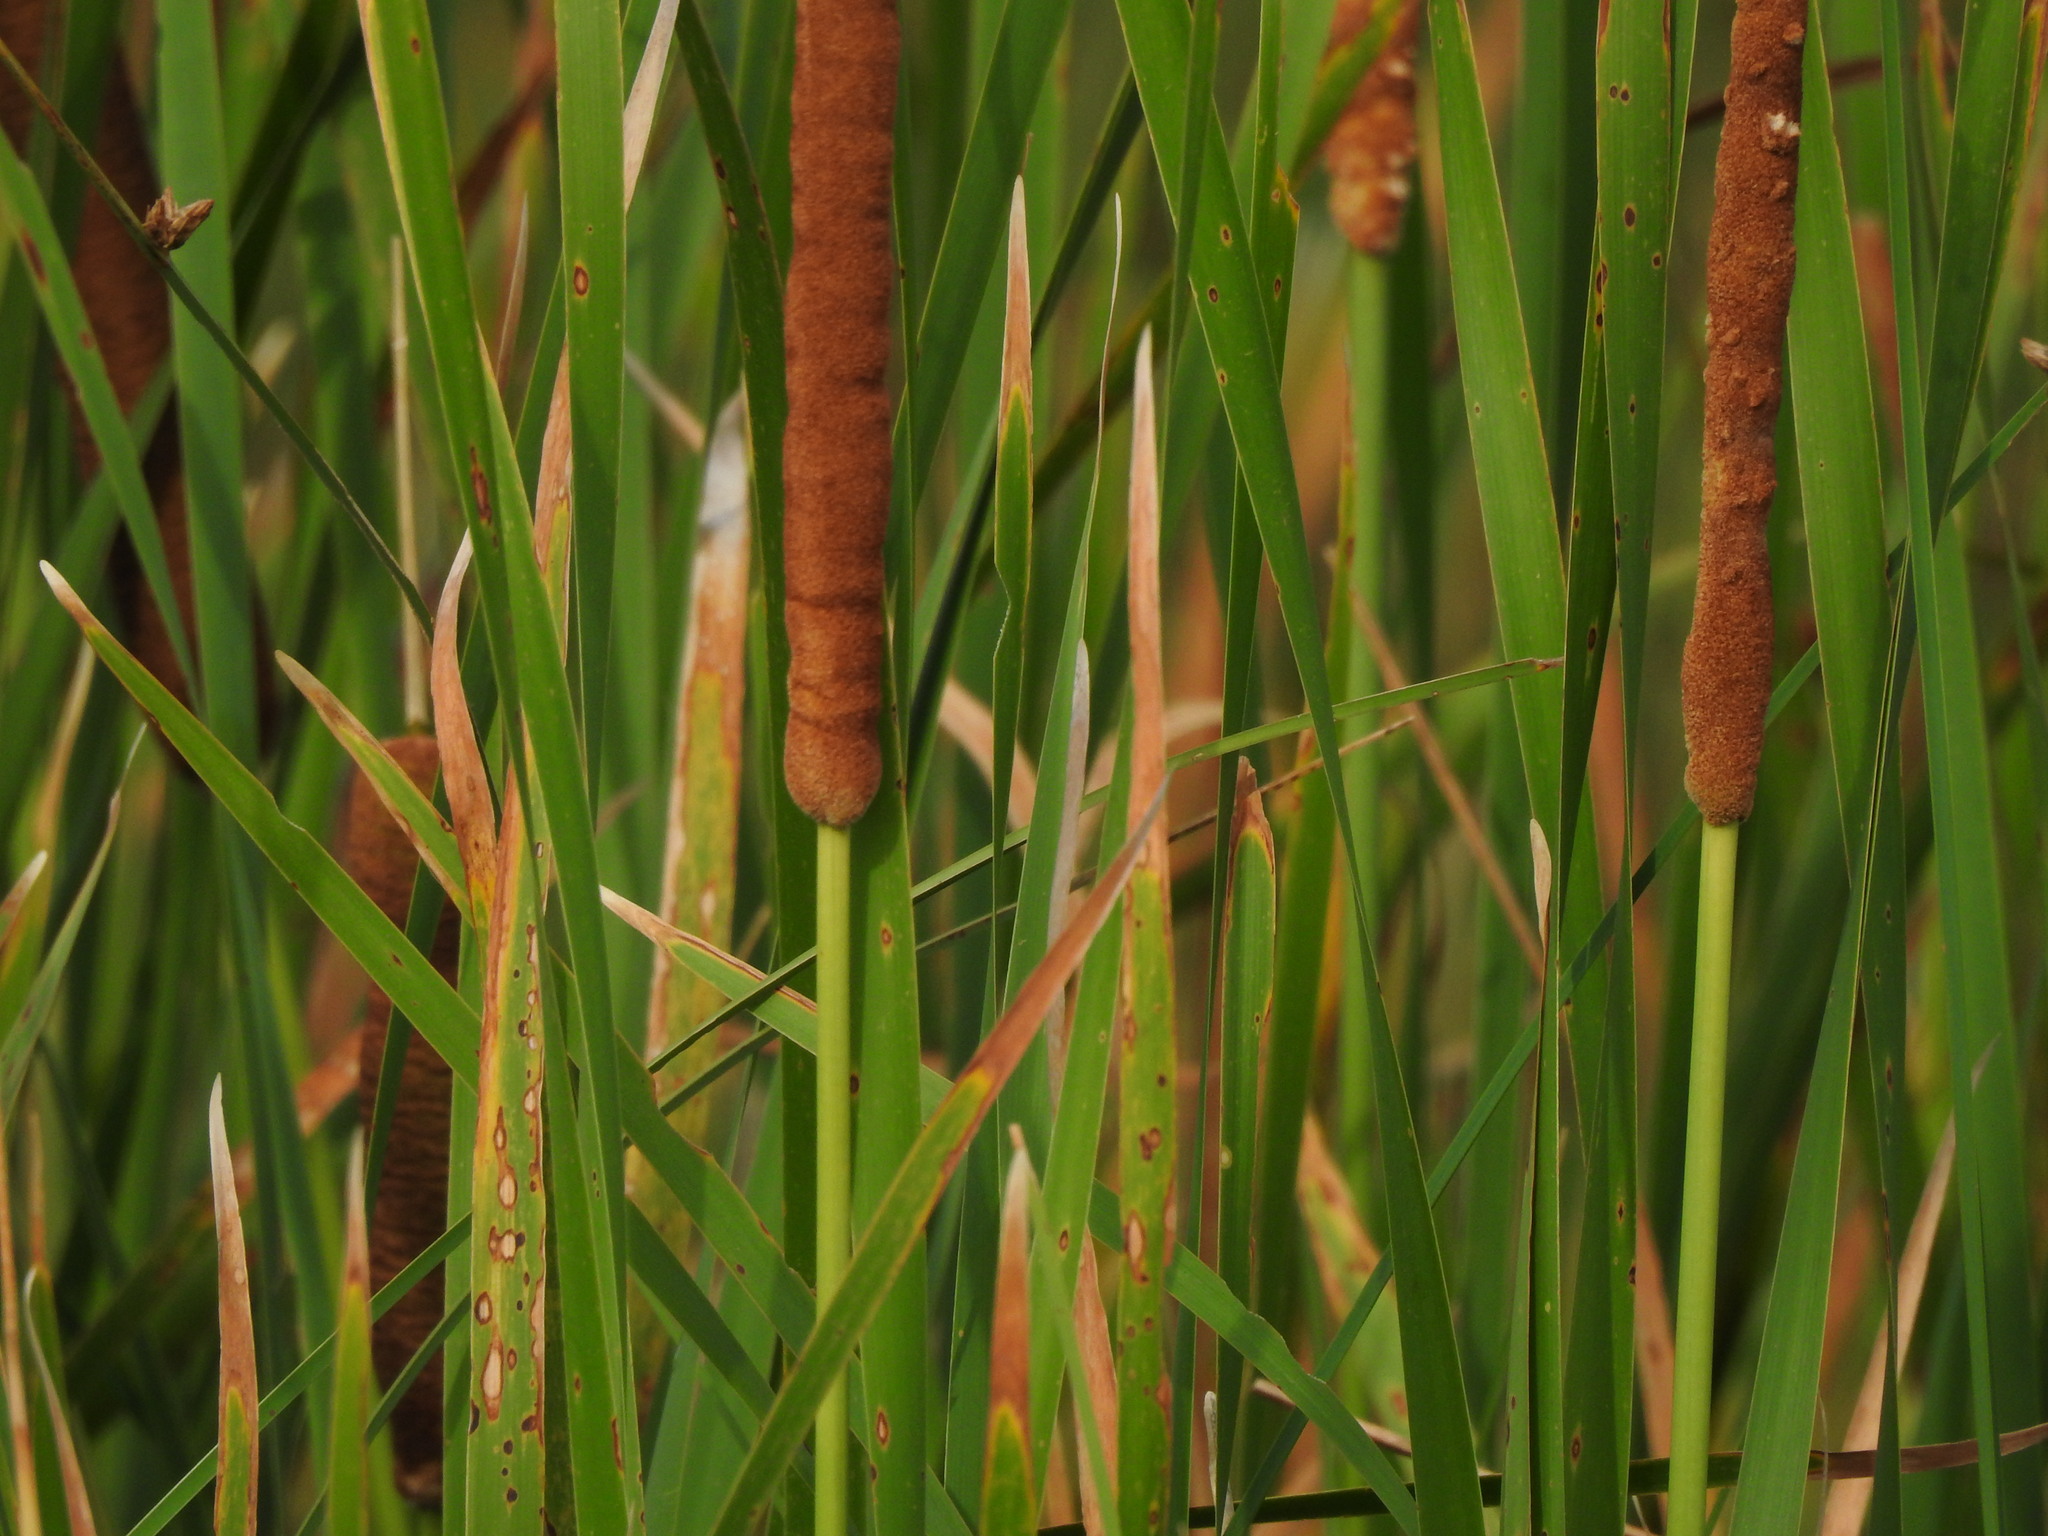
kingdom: Plantae
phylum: Tracheophyta
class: Liliopsida
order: Poales
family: Typhaceae
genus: Typha
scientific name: Typha latifolia
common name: Broadleaf cattail
